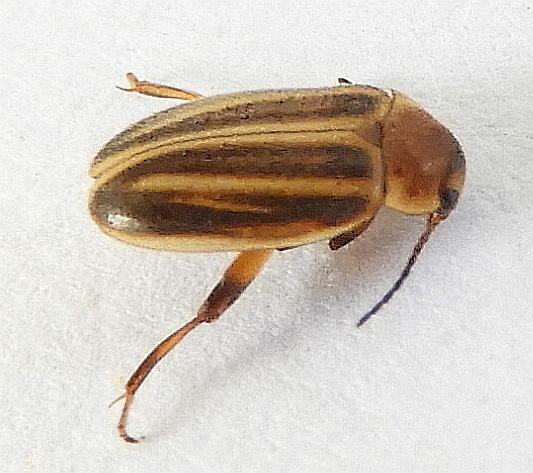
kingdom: Animalia
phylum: Arthropoda
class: Insecta
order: Coleoptera
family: Scirtidae
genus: Scirtes
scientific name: Scirtes oblongus
